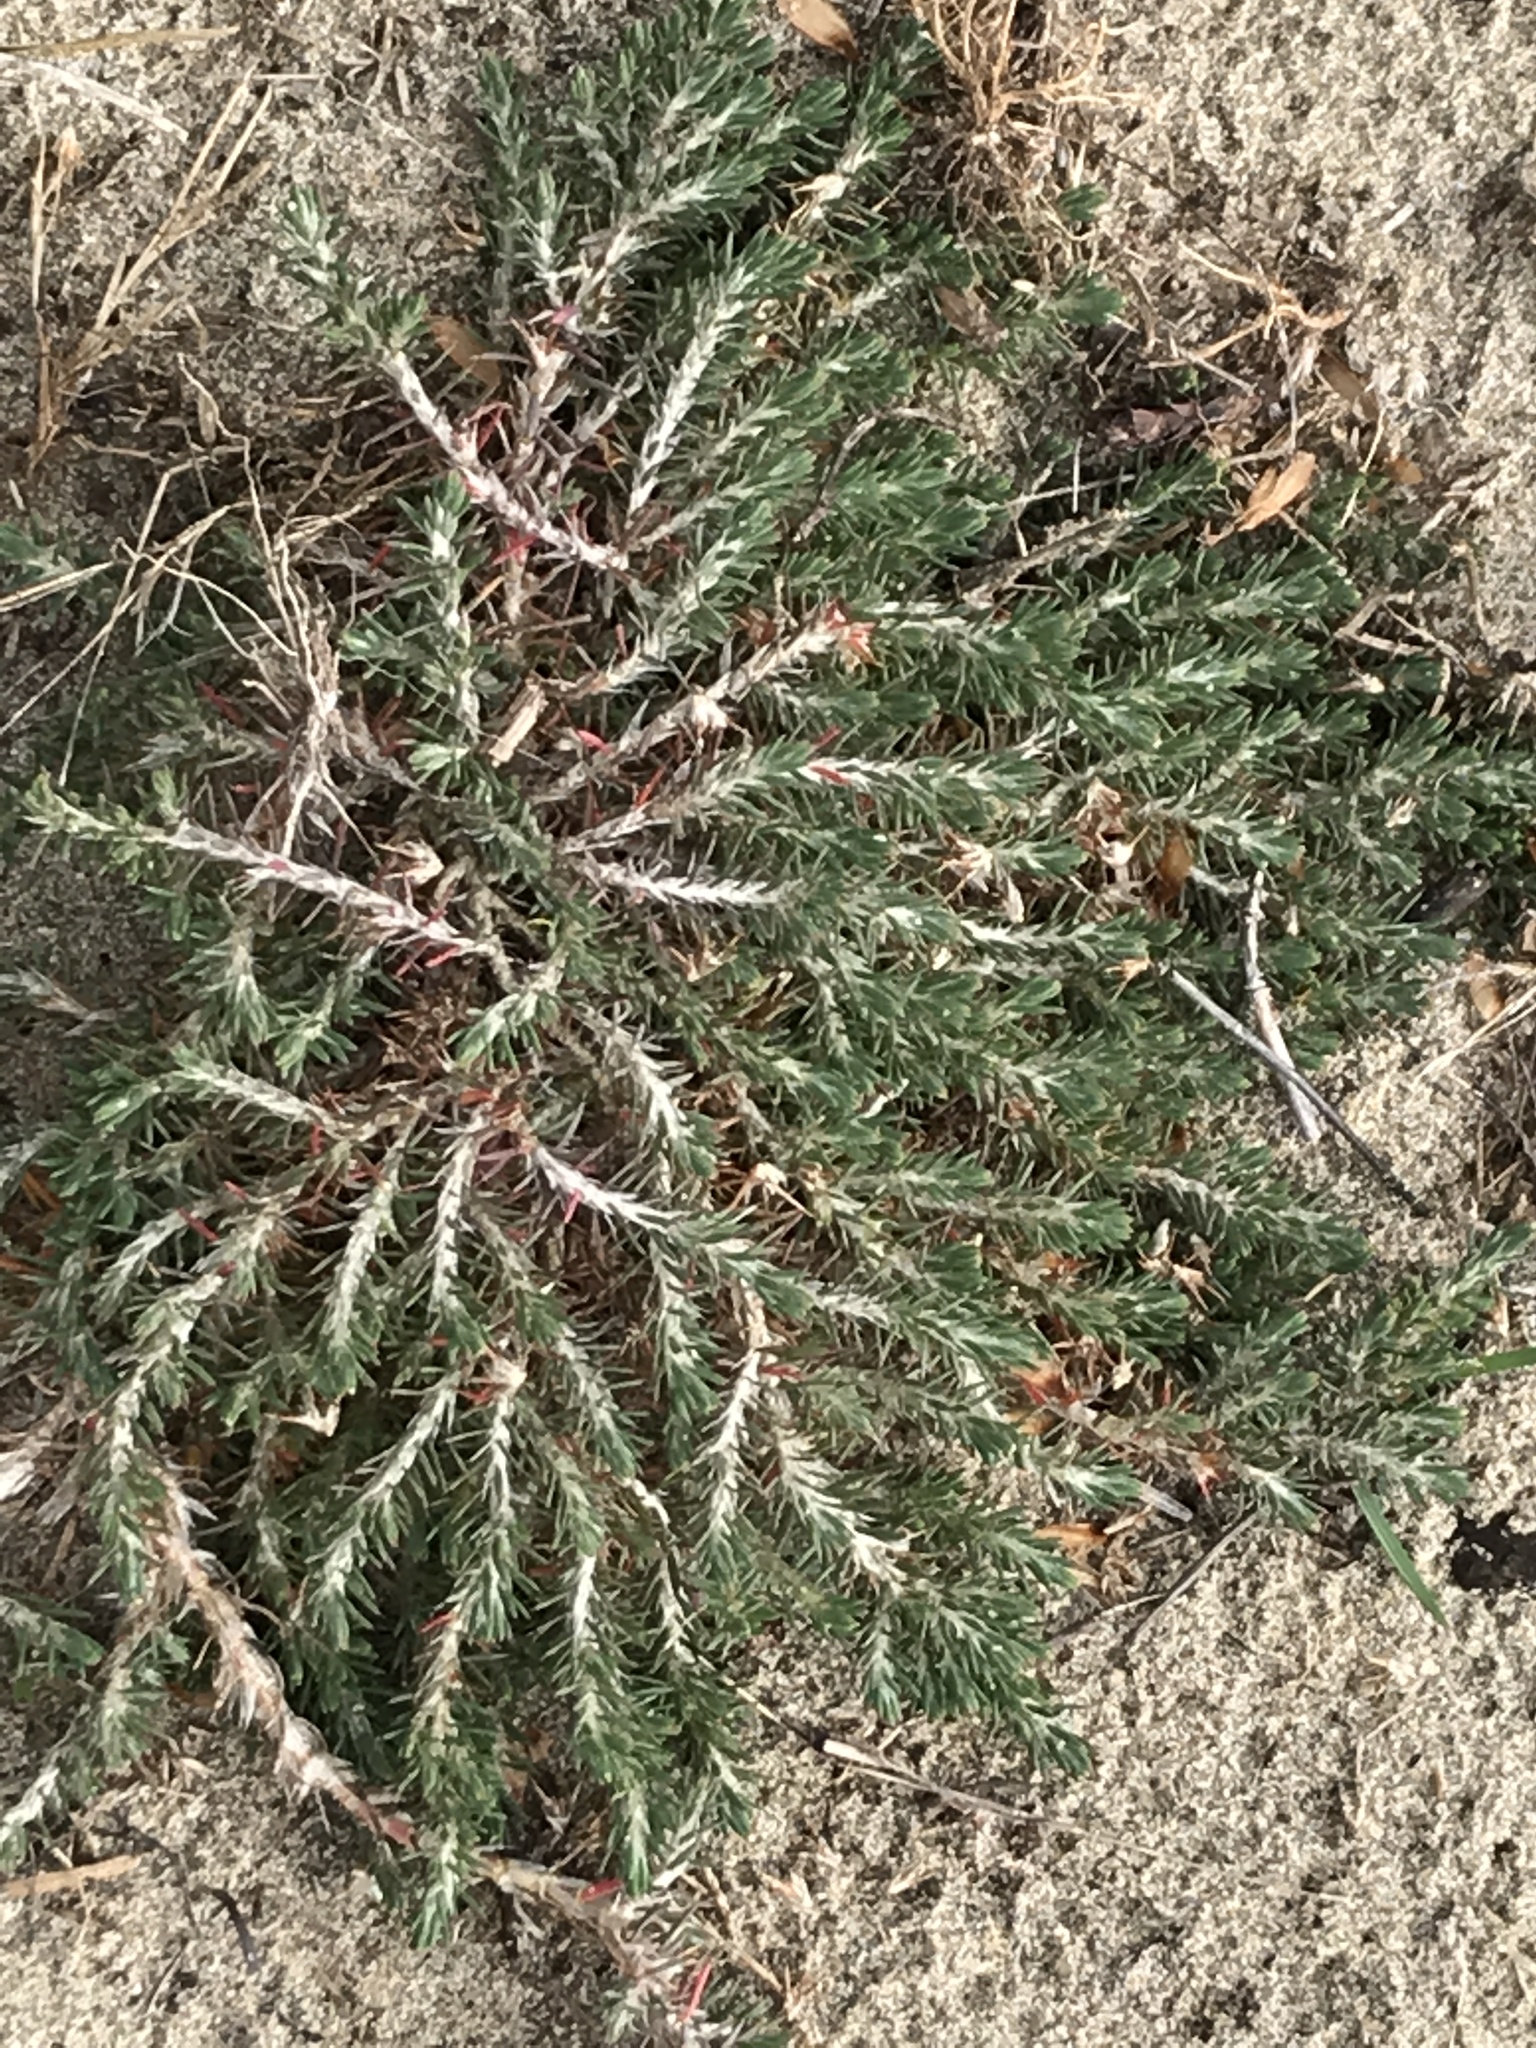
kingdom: Plantae
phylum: Tracheophyta
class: Magnoliopsida
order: Caryophyllales
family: Caryophyllaceae
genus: Cardionema
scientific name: Cardionema ramosissima
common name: Sandcarpet
